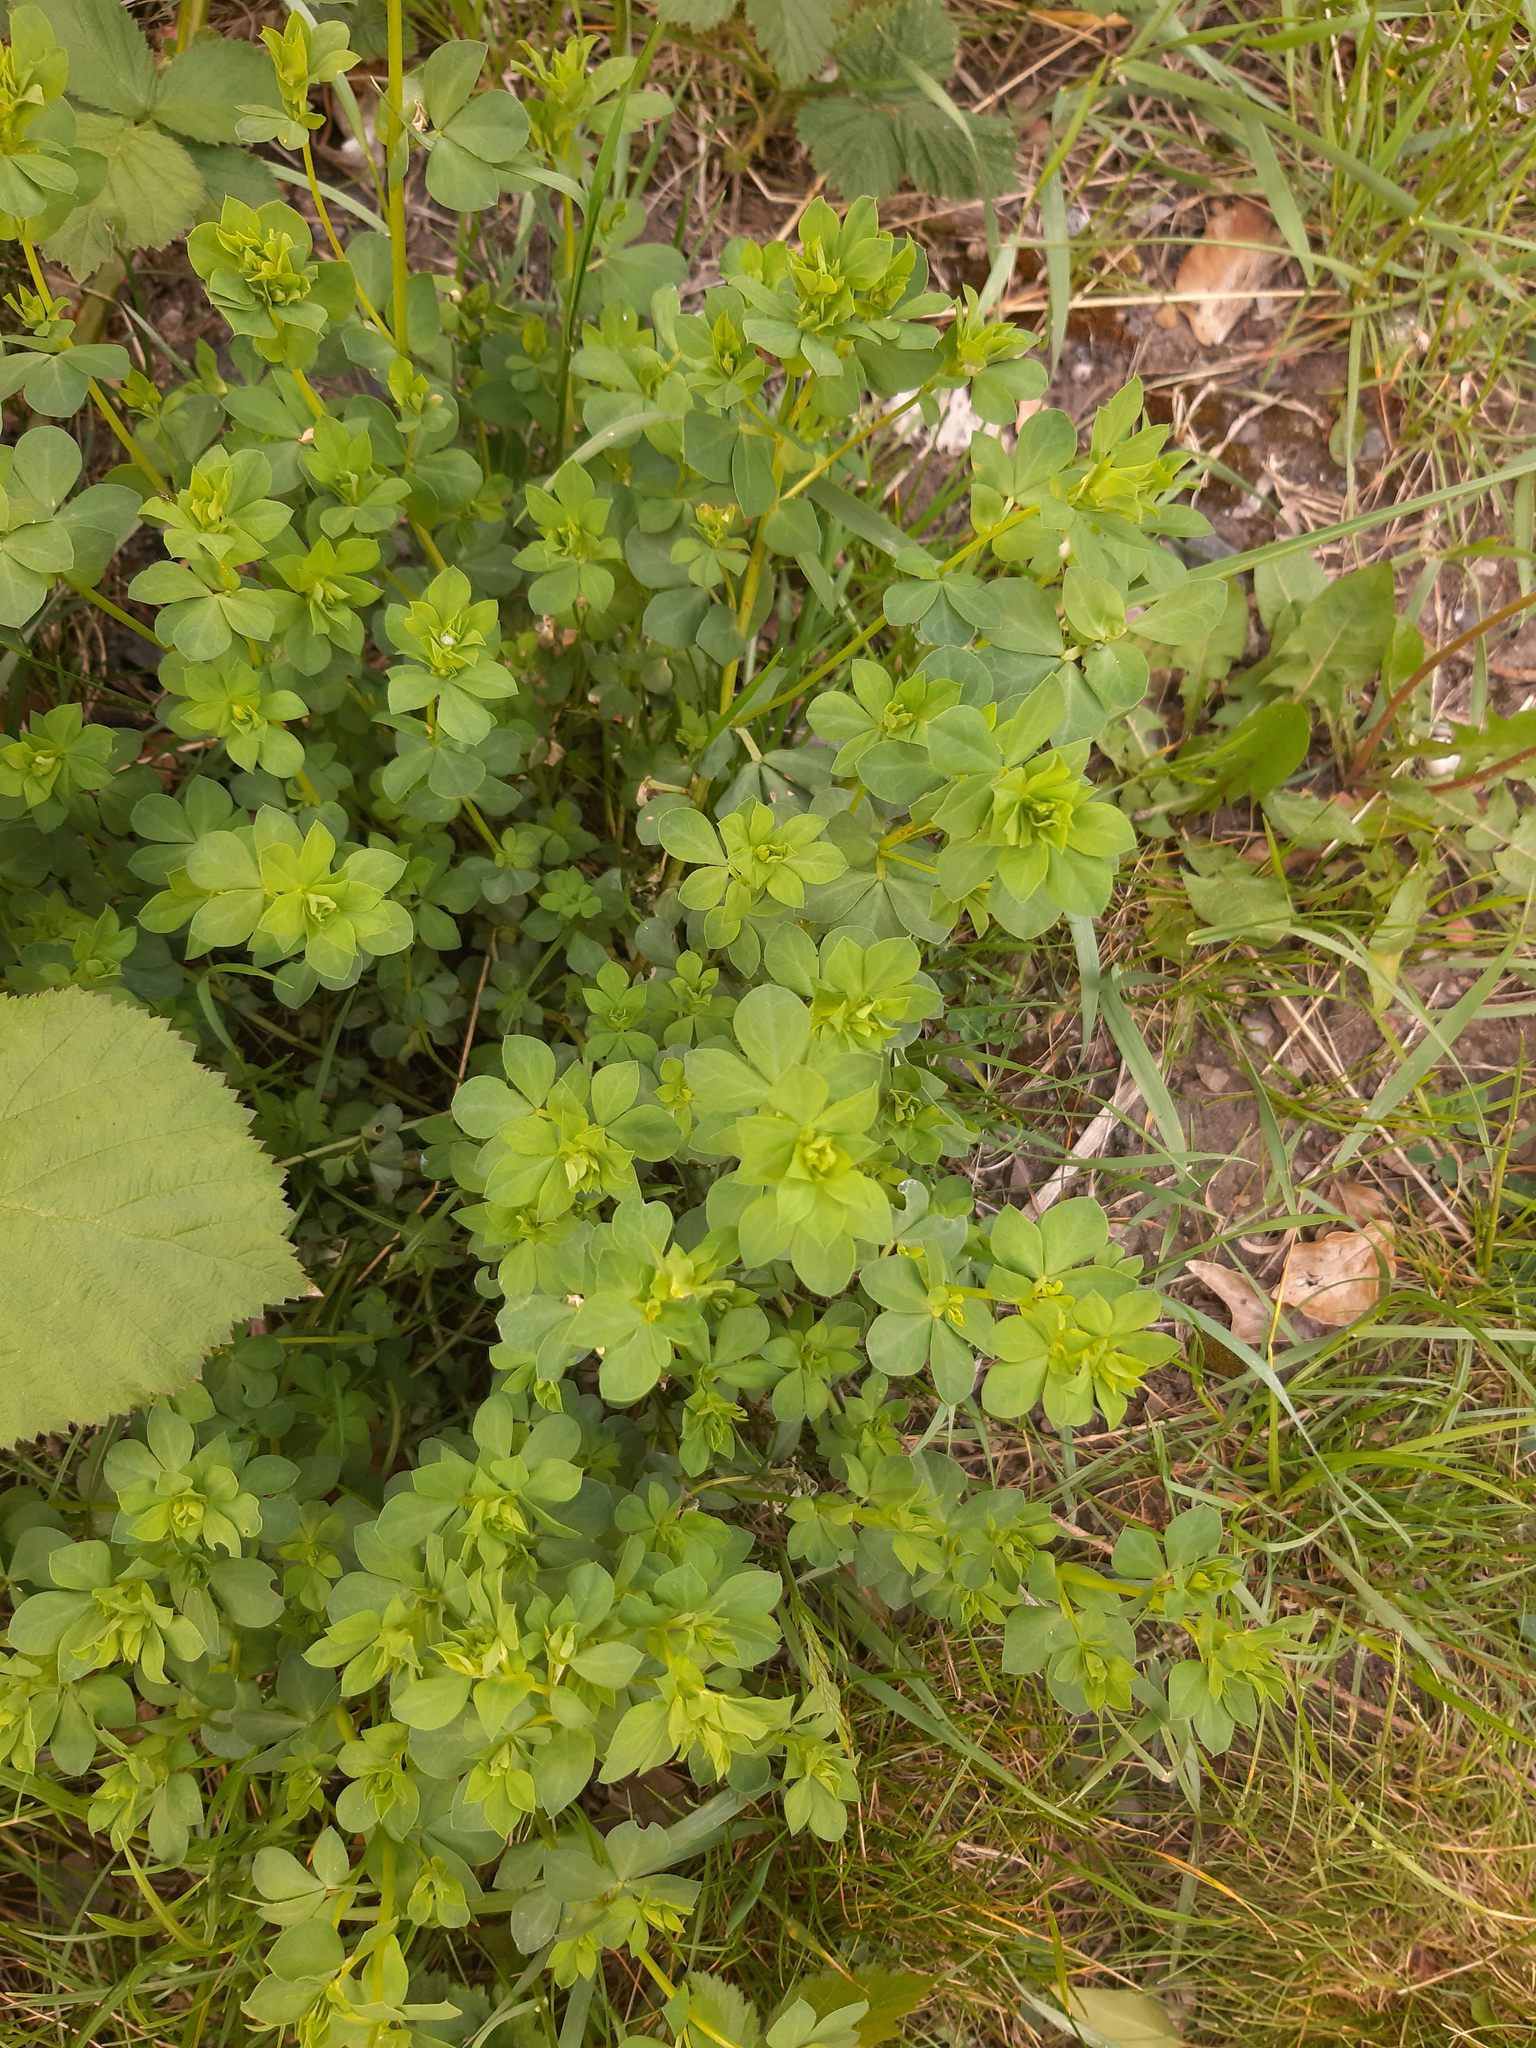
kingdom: Plantae
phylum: Tracheophyta
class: Magnoliopsida
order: Fabales
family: Fabaceae
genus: Lotus
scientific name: Lotus pedunculatus
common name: Greater birdsfoot-trefoil
